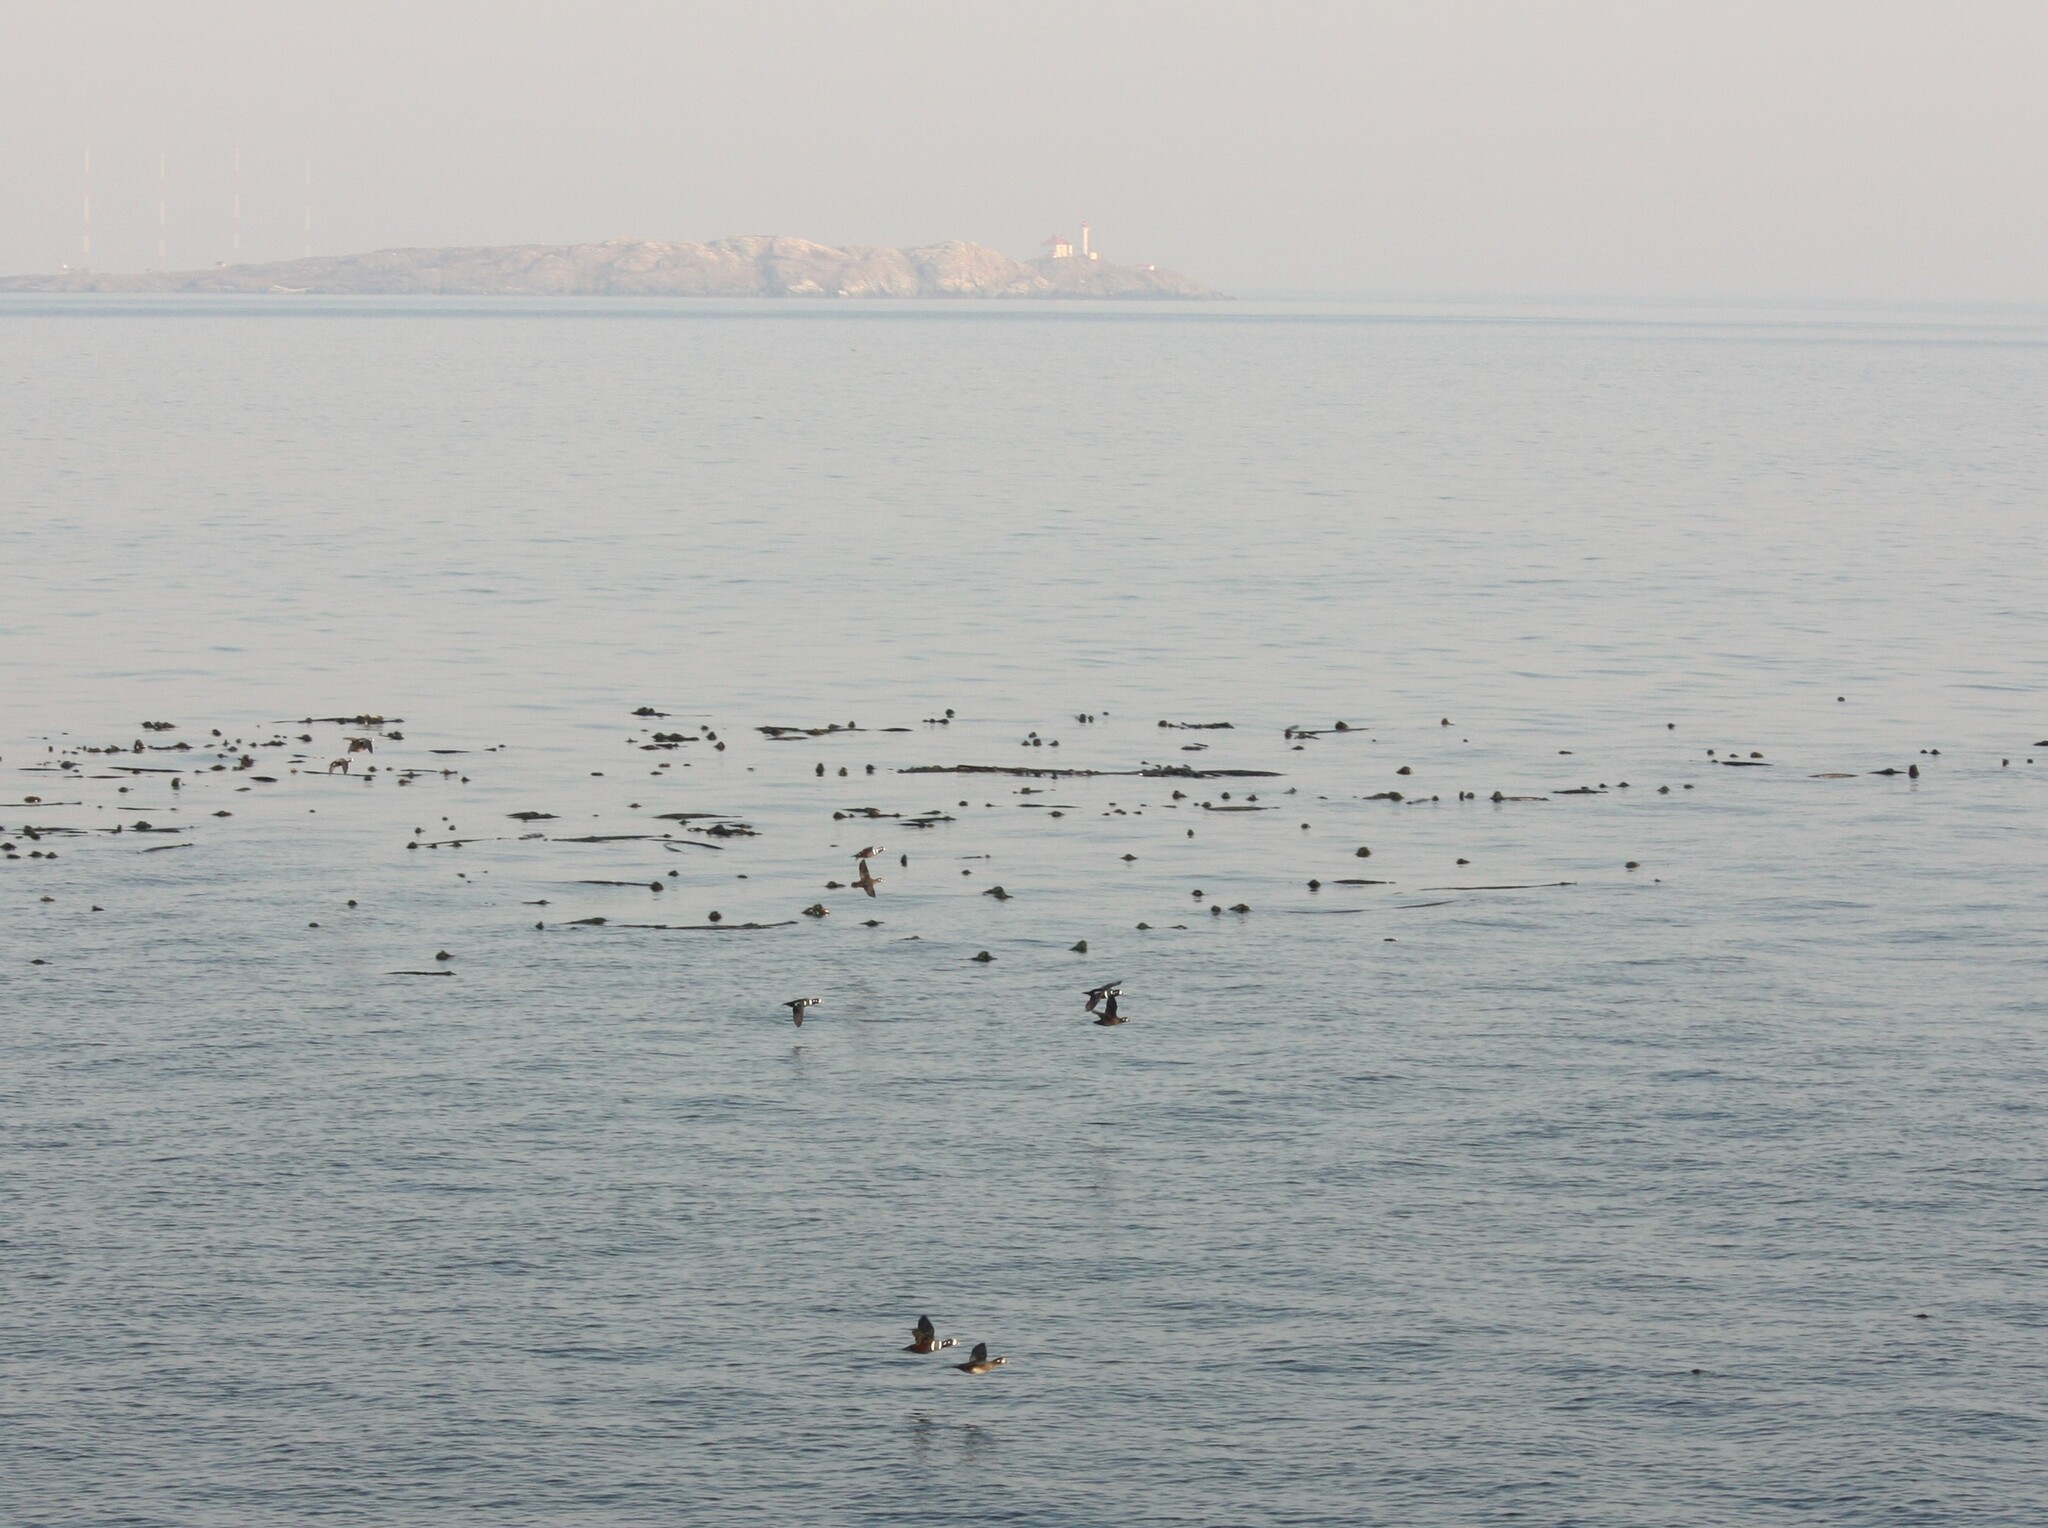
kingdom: Animalia
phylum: Chordata
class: Aves
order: Anseriformes
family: Anatidae
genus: Histrionicus
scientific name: Histrionicus histrionicus
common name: Harlequin duck
